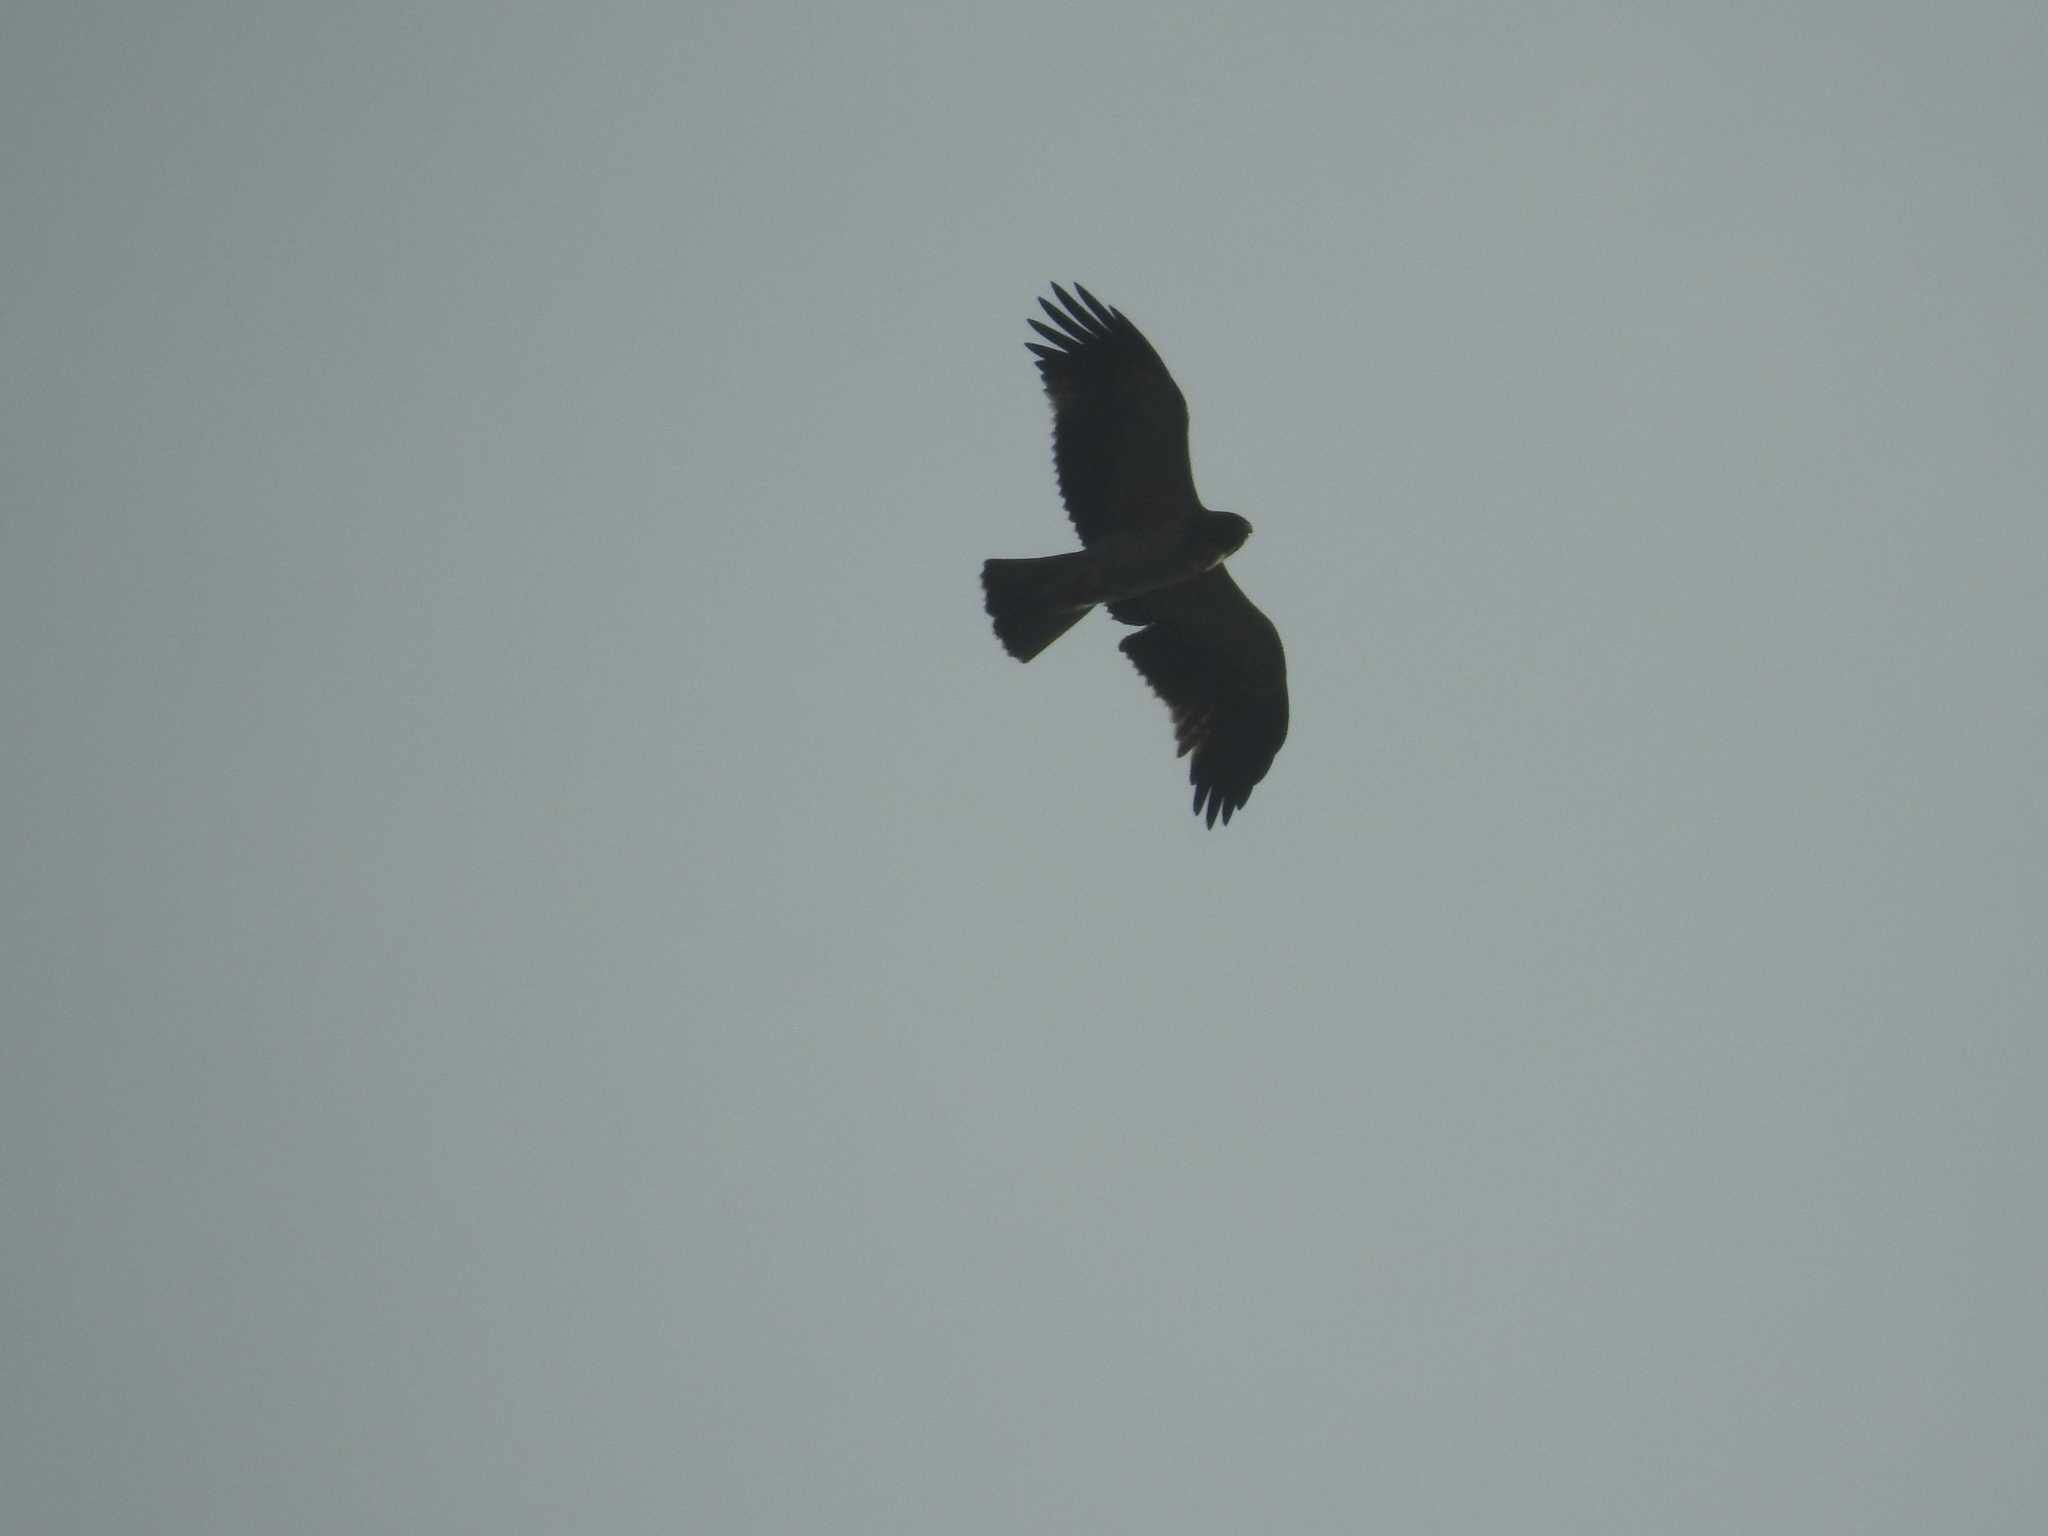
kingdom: Animalia
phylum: Chordata
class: Aves
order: Accipitriformes
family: Accipitridae
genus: Hieraaetus
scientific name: Hieraaetus pennatus
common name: Booted eagle
